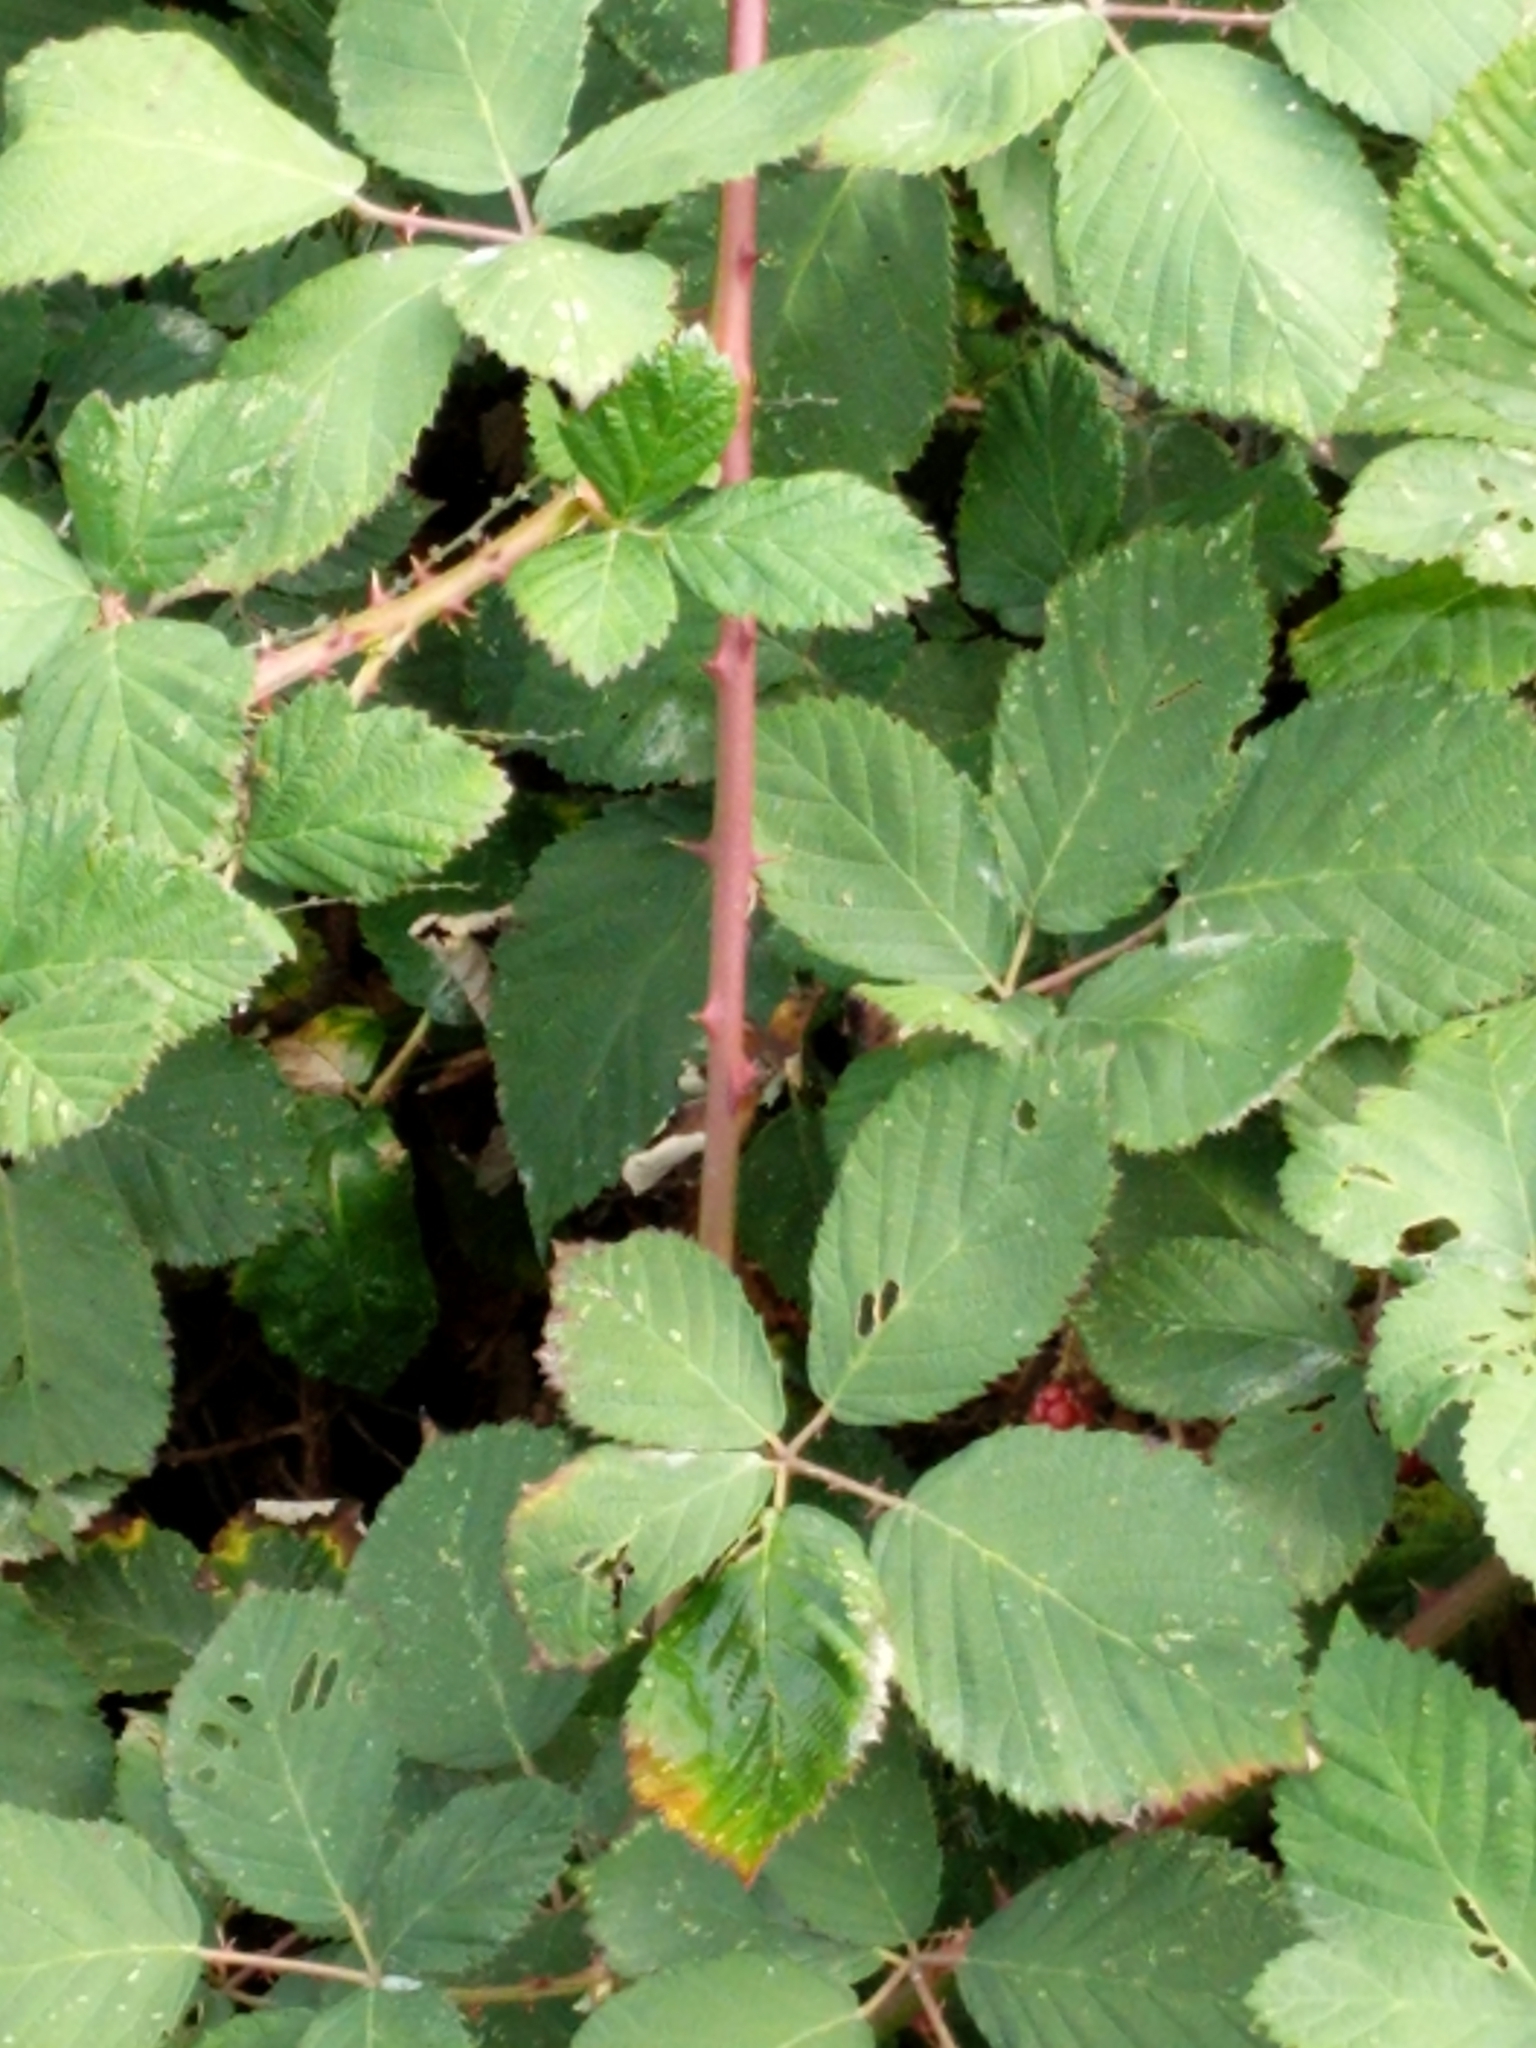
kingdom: Plantae
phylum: Tracheophyta
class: Magnoliopsida
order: Rosales
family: Rosaceae
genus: Rubus
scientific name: Rubus armeniacus
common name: Himalayan blackberry
